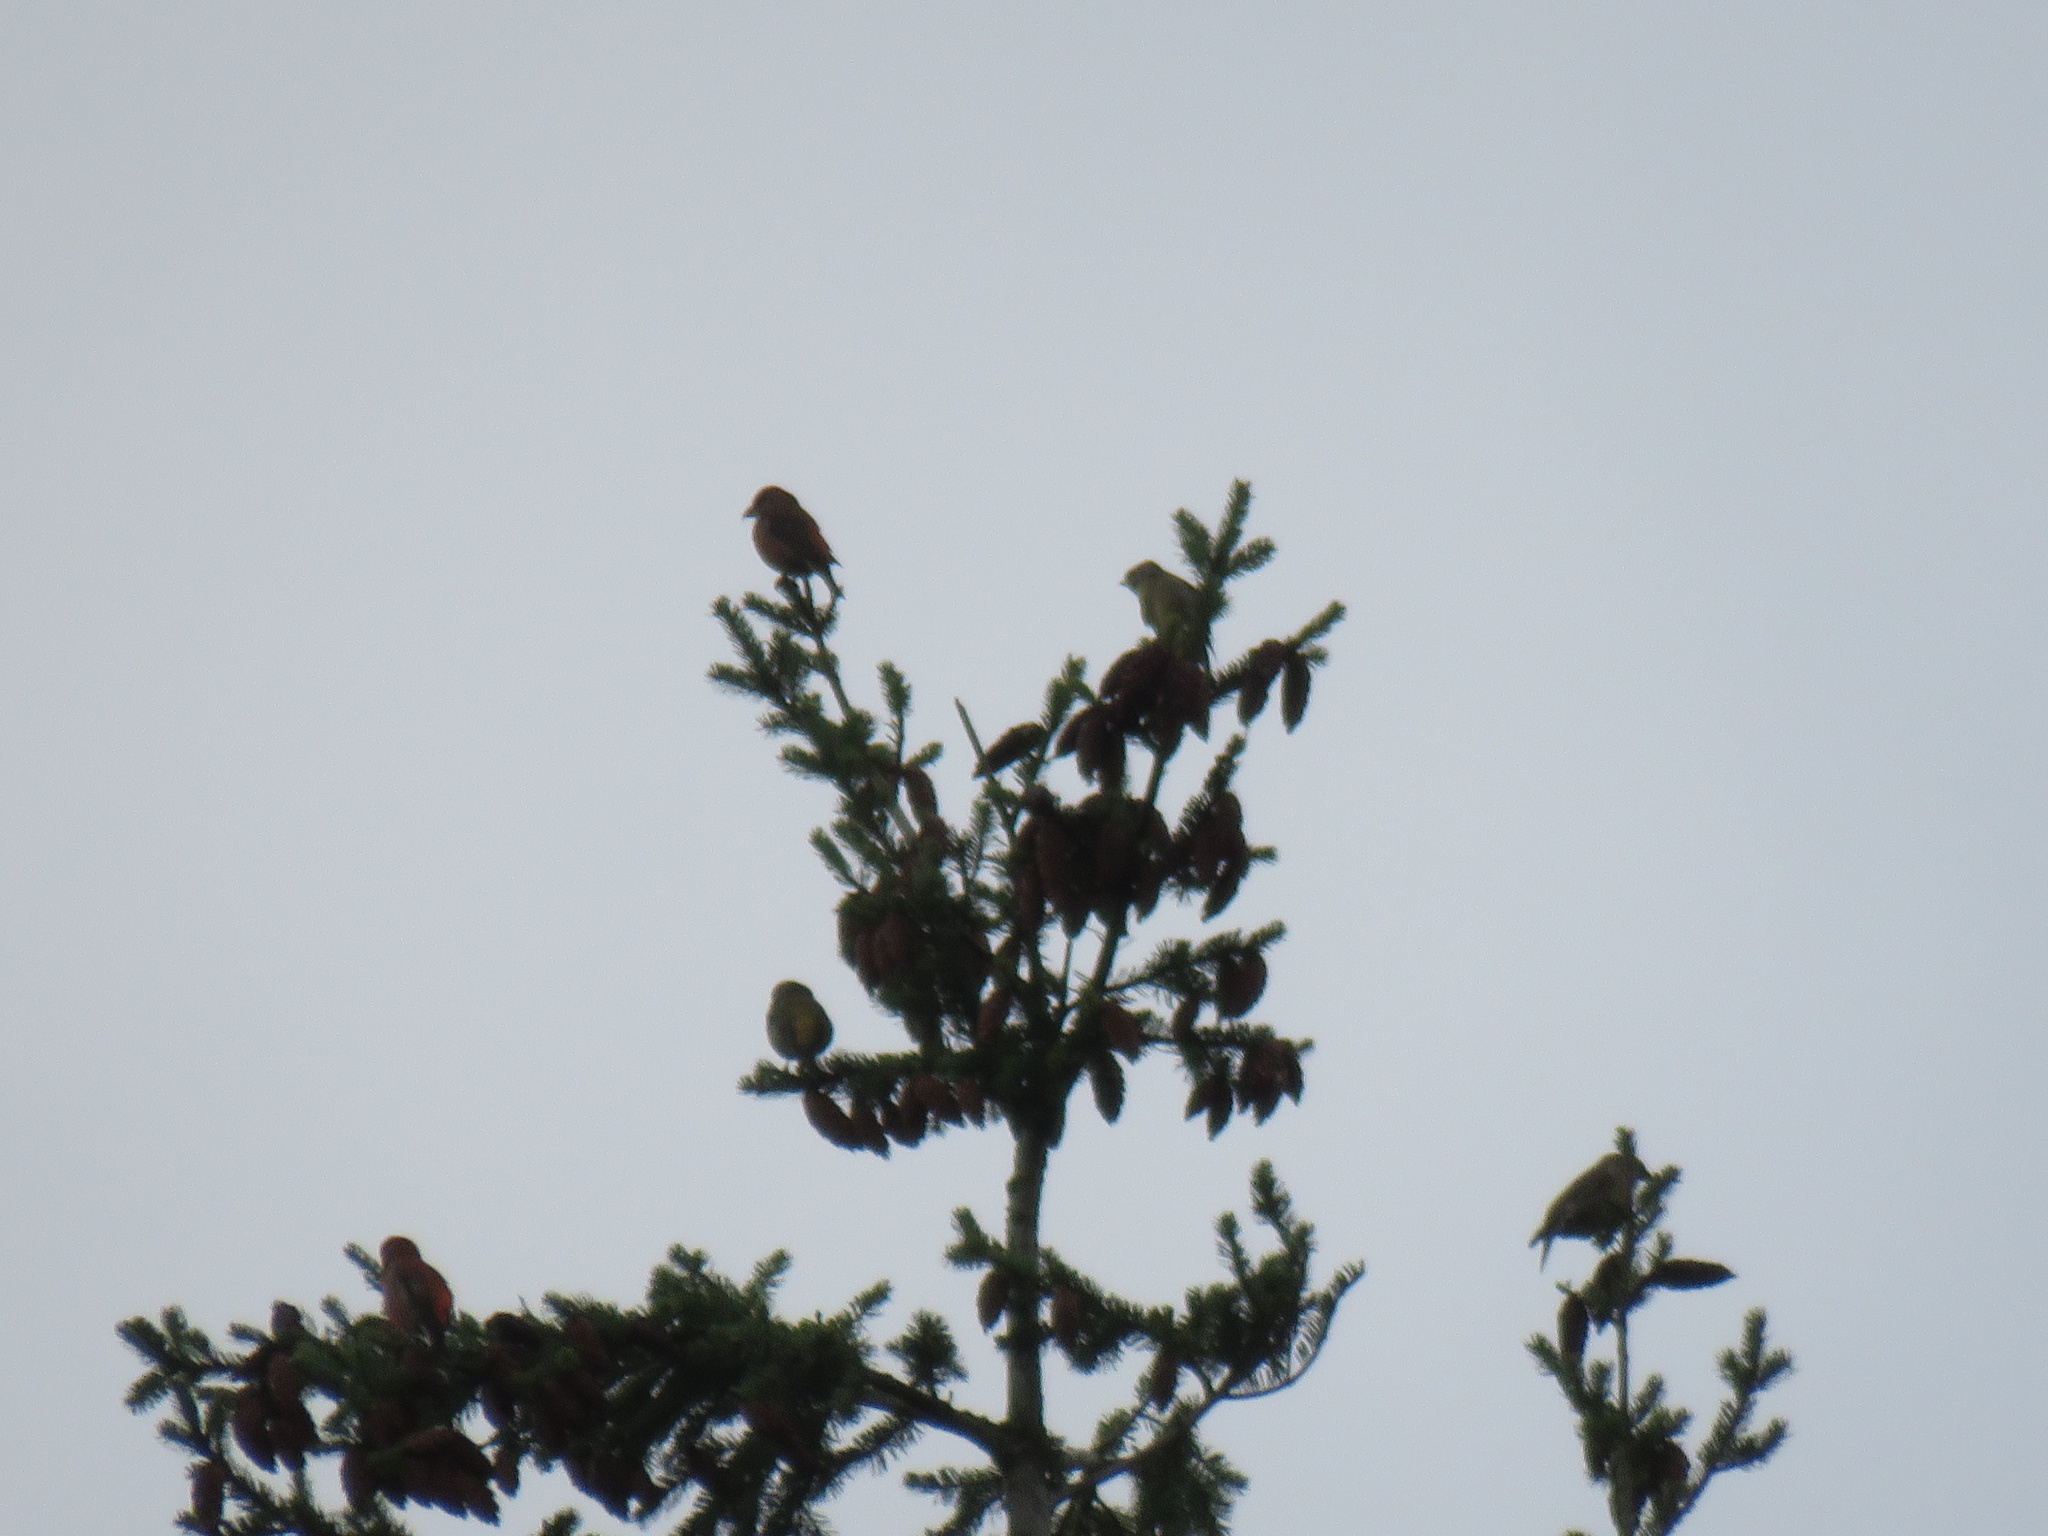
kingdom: Animalia
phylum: Chordata
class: Aves
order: Passeriformes
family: Fringillidae
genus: Loxia
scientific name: Loxia curvirostra
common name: Red crossbill
